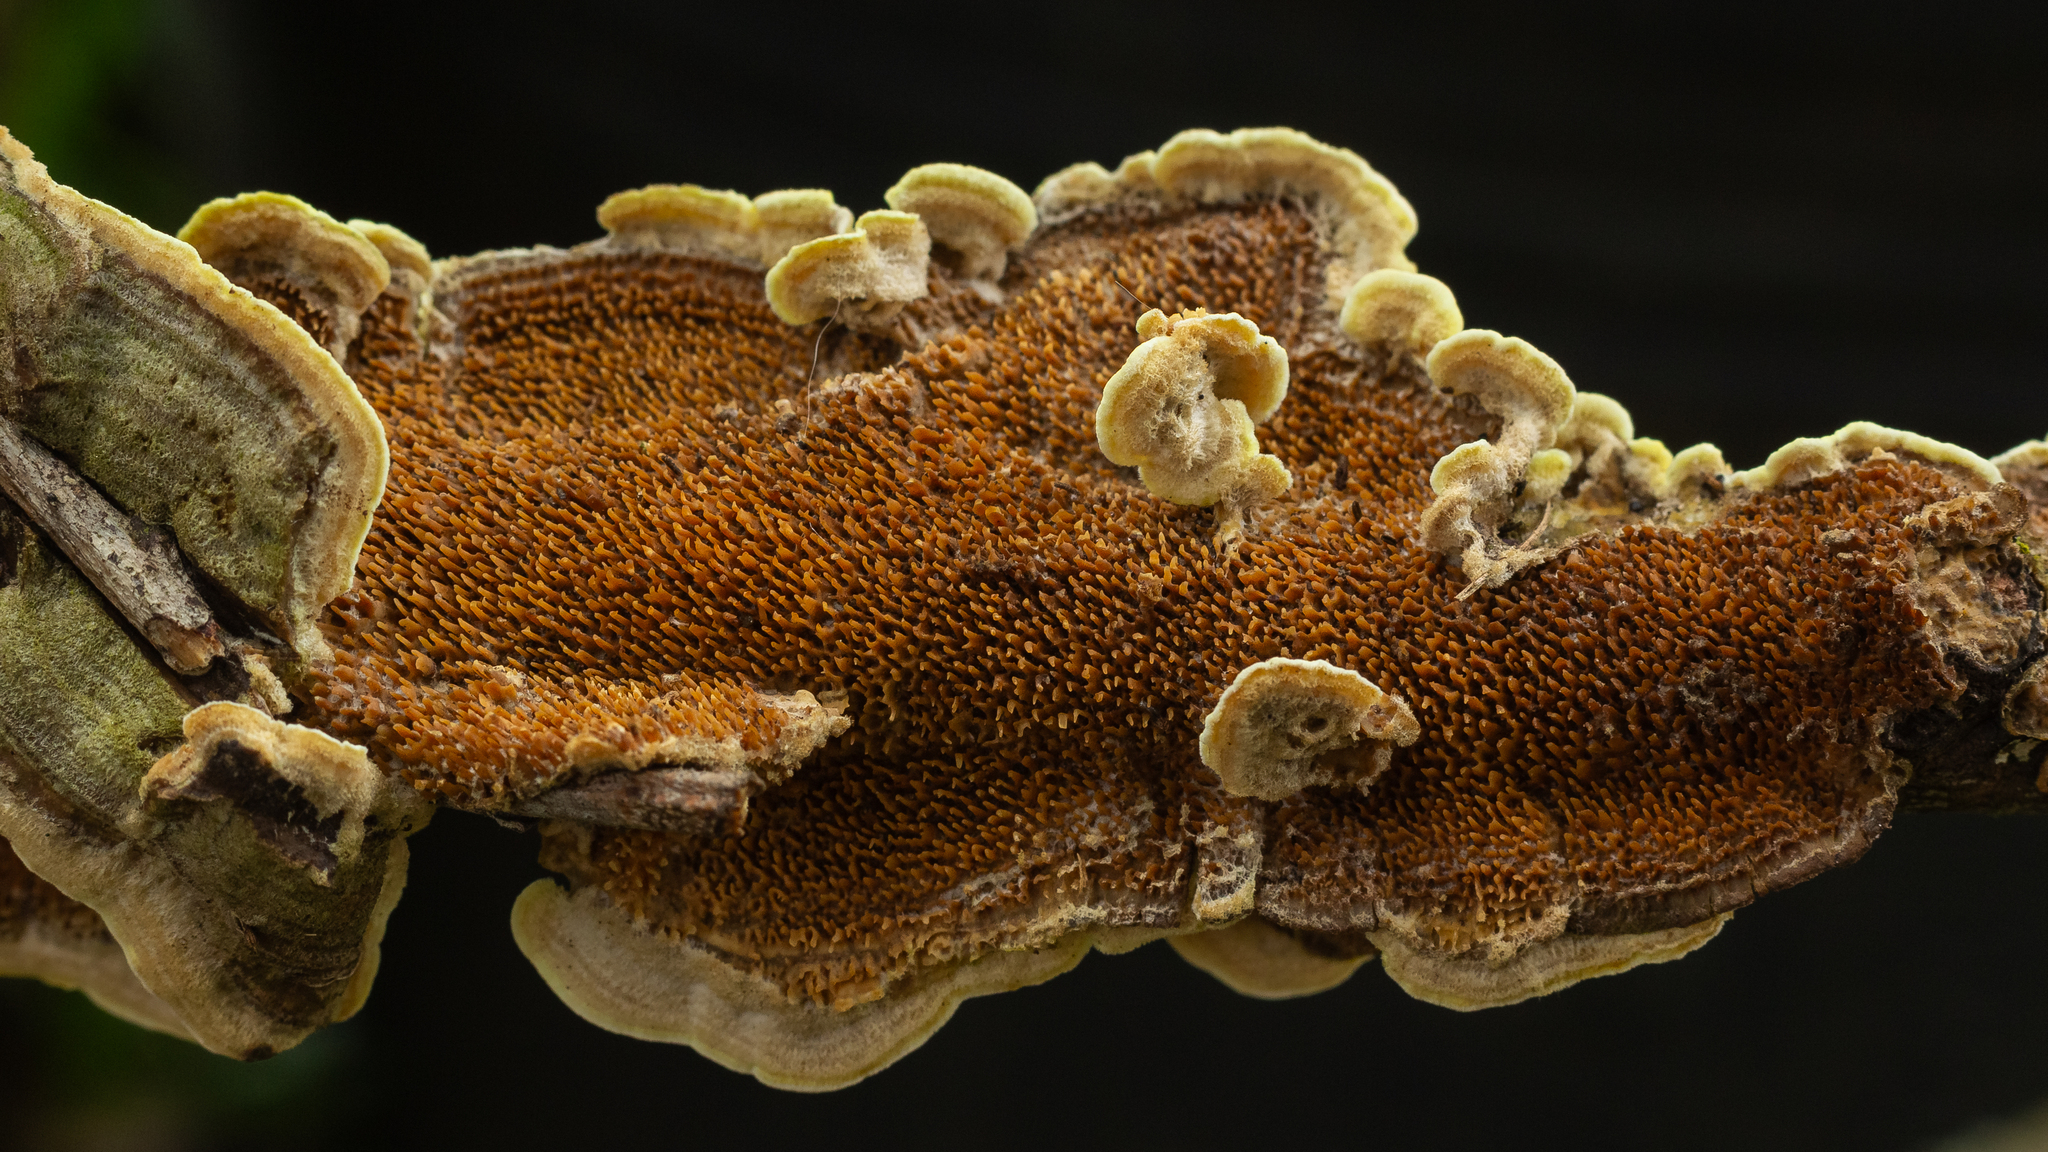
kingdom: Fungi
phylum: Basidiomycota
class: Agaricomycetes
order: Polyporales
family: Irpicaceae
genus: Flavodon
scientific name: Flavodon flavus
